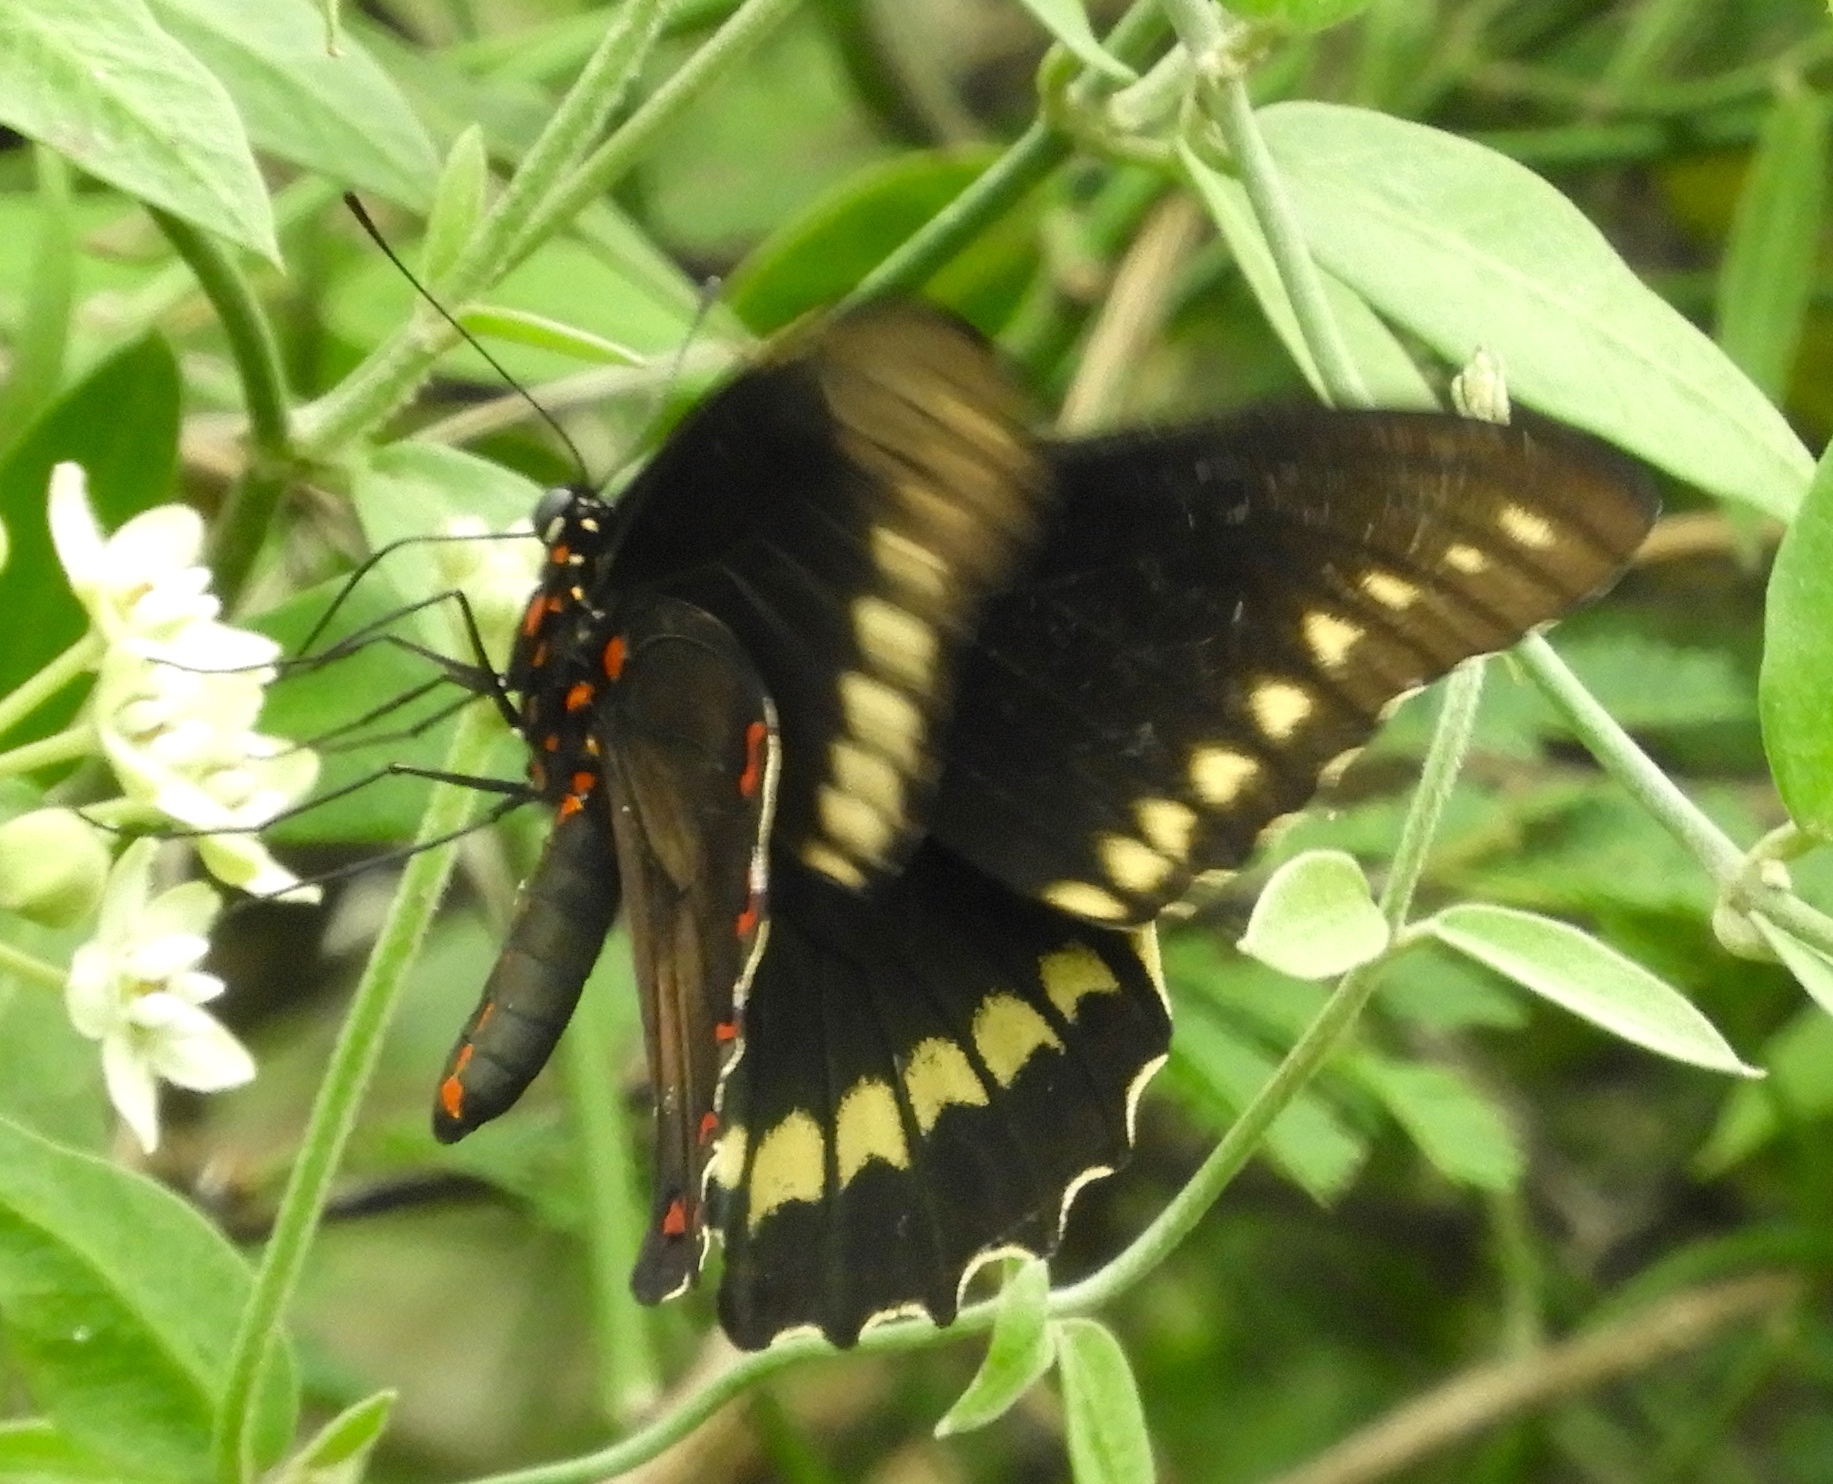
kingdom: Animalia
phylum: Arthropoda
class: Insecta
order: Lepidoptera
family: Papilionidae
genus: Battus
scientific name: Battus polydamas
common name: Polydamas swallowtail
